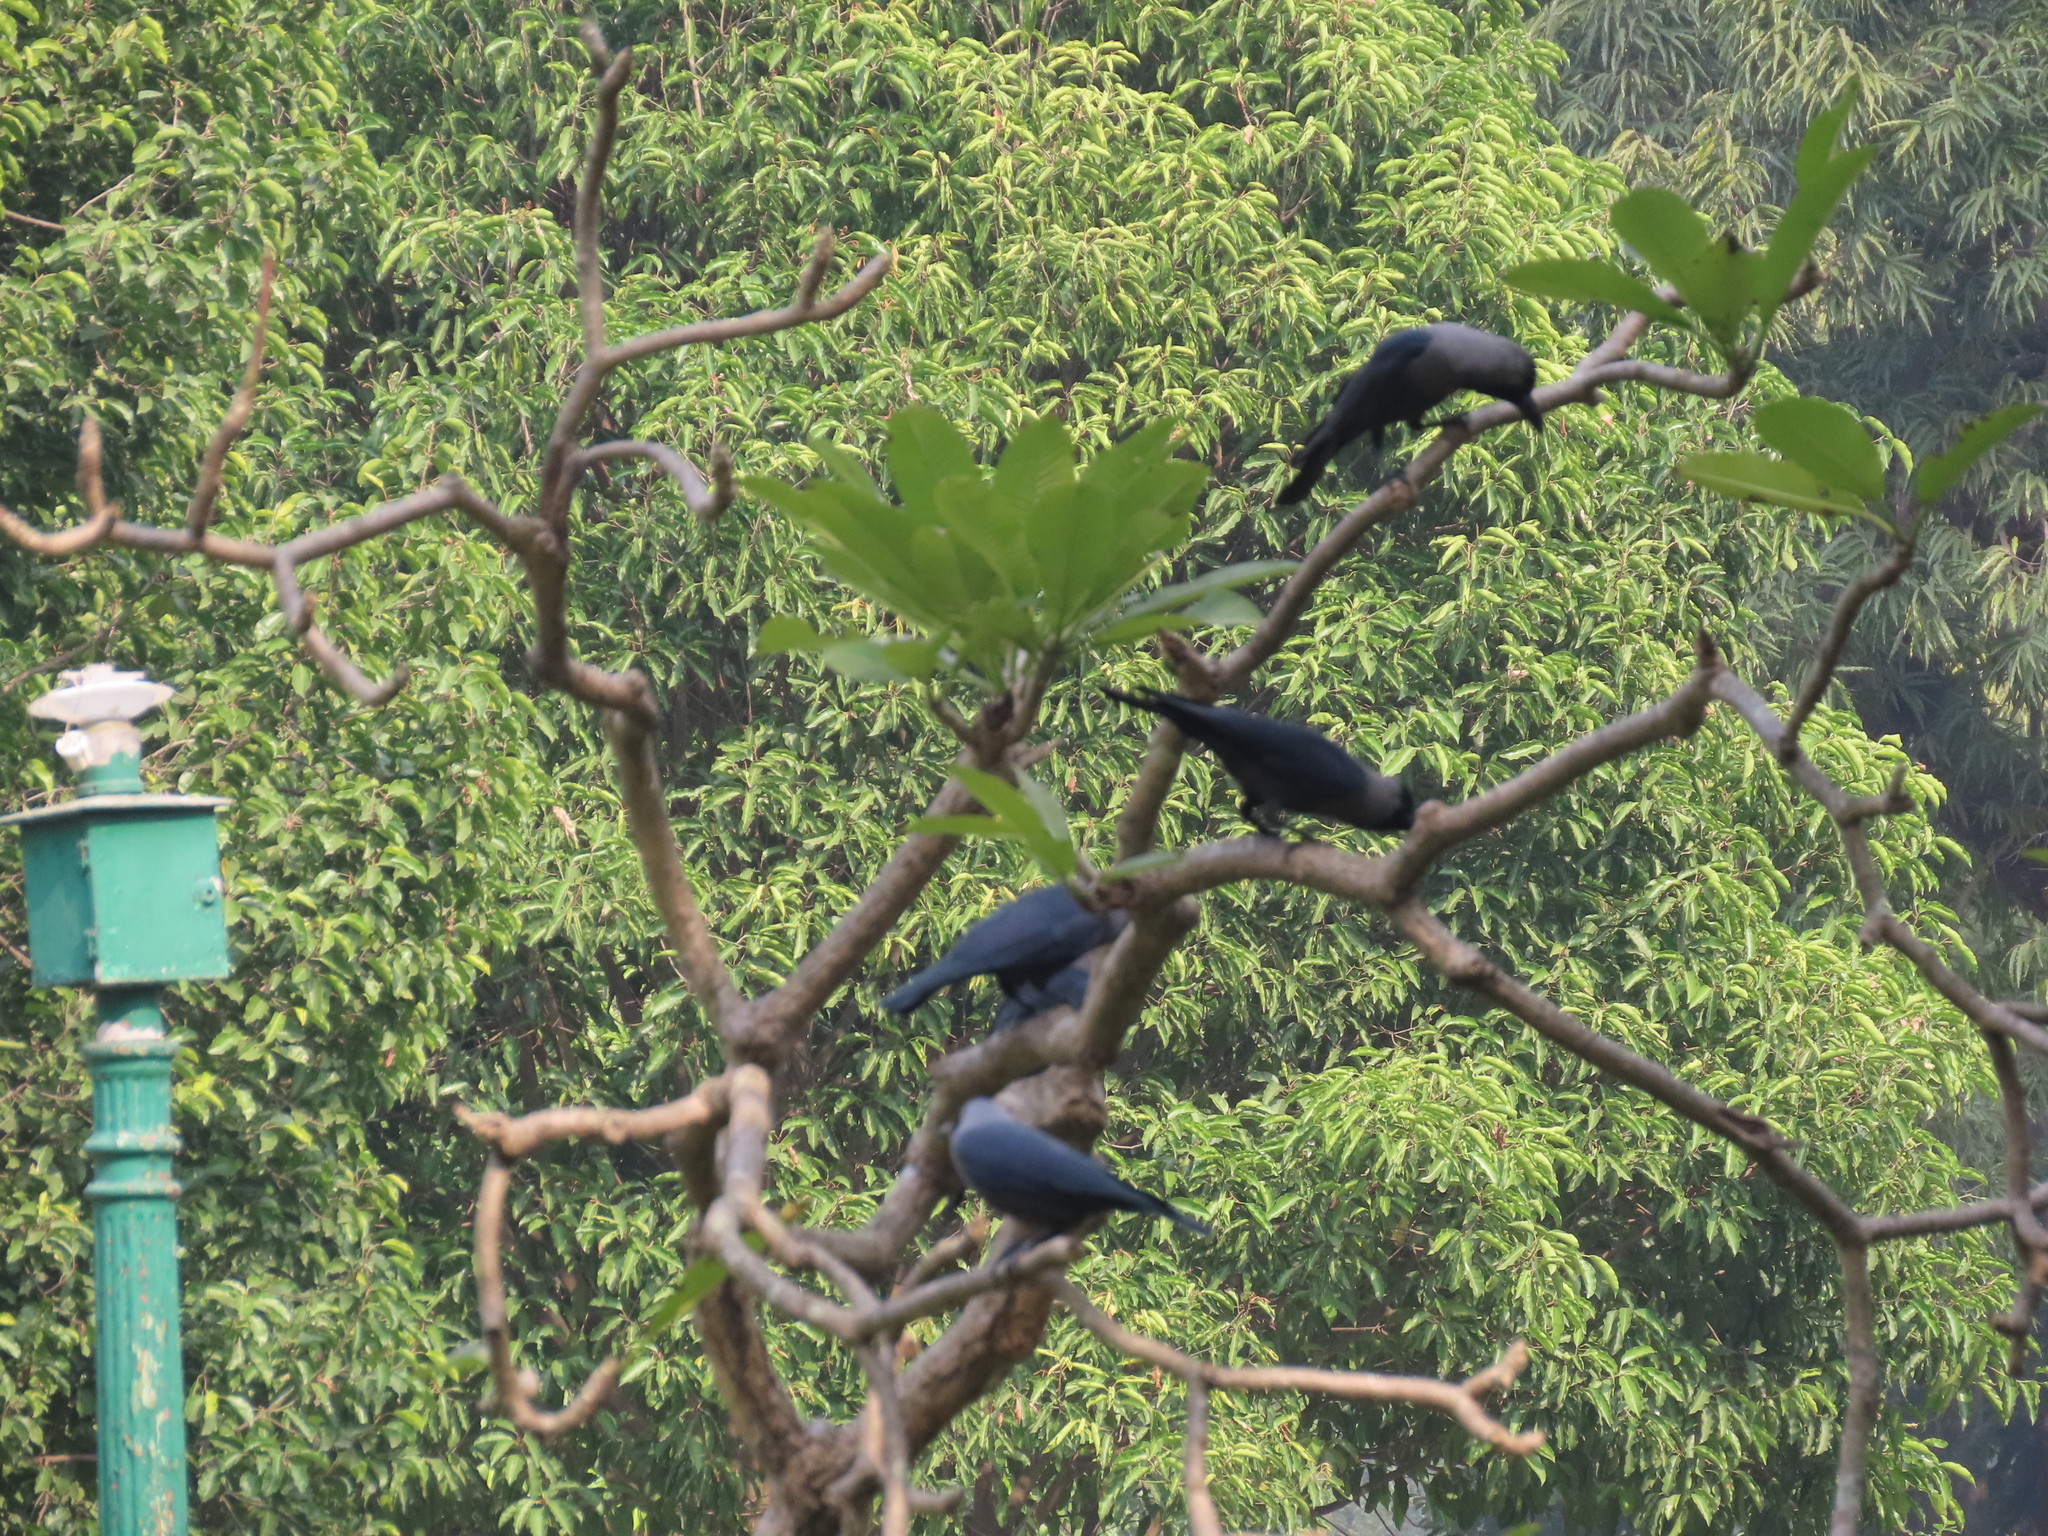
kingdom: Animalia
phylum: Chordata
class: Aves
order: Passeriformes
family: Corvidae
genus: Corvus
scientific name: Corvus splendens
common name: House crow
